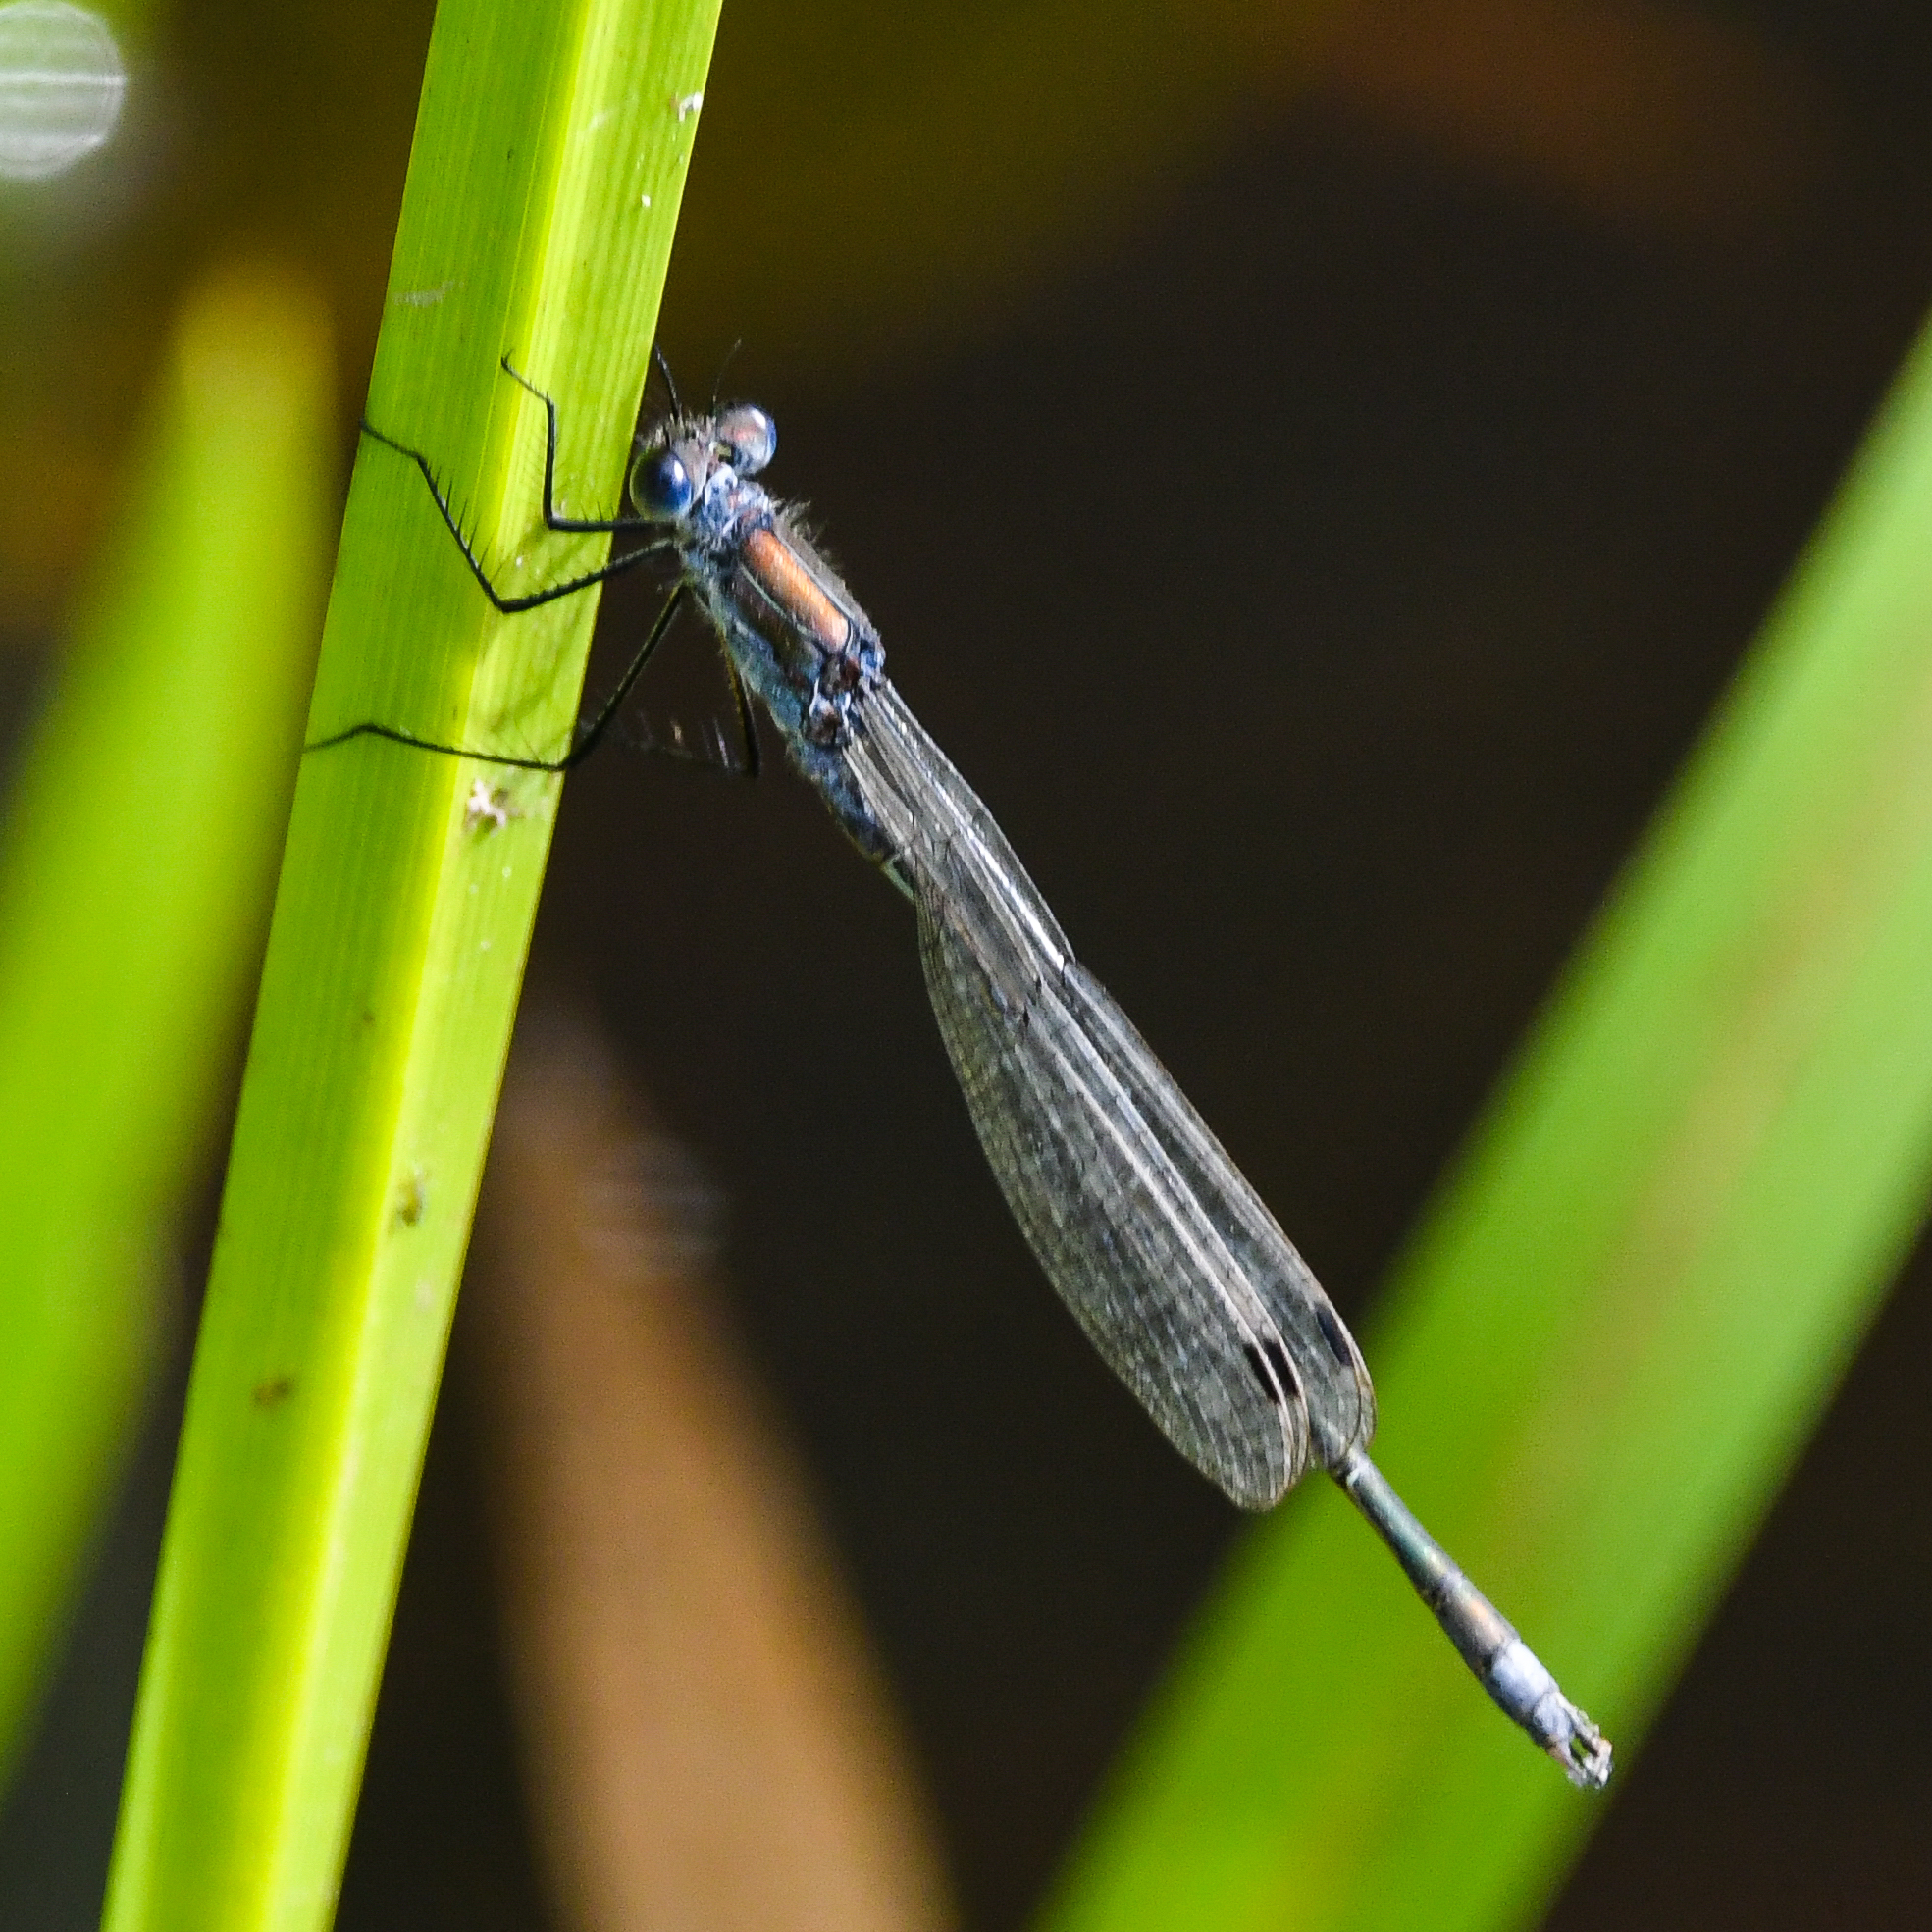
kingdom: Animalia
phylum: Arthropoda
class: Insecta
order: Odonata
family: Lestidae
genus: Lestes
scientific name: Lestes sponsa
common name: Common spreadwing
